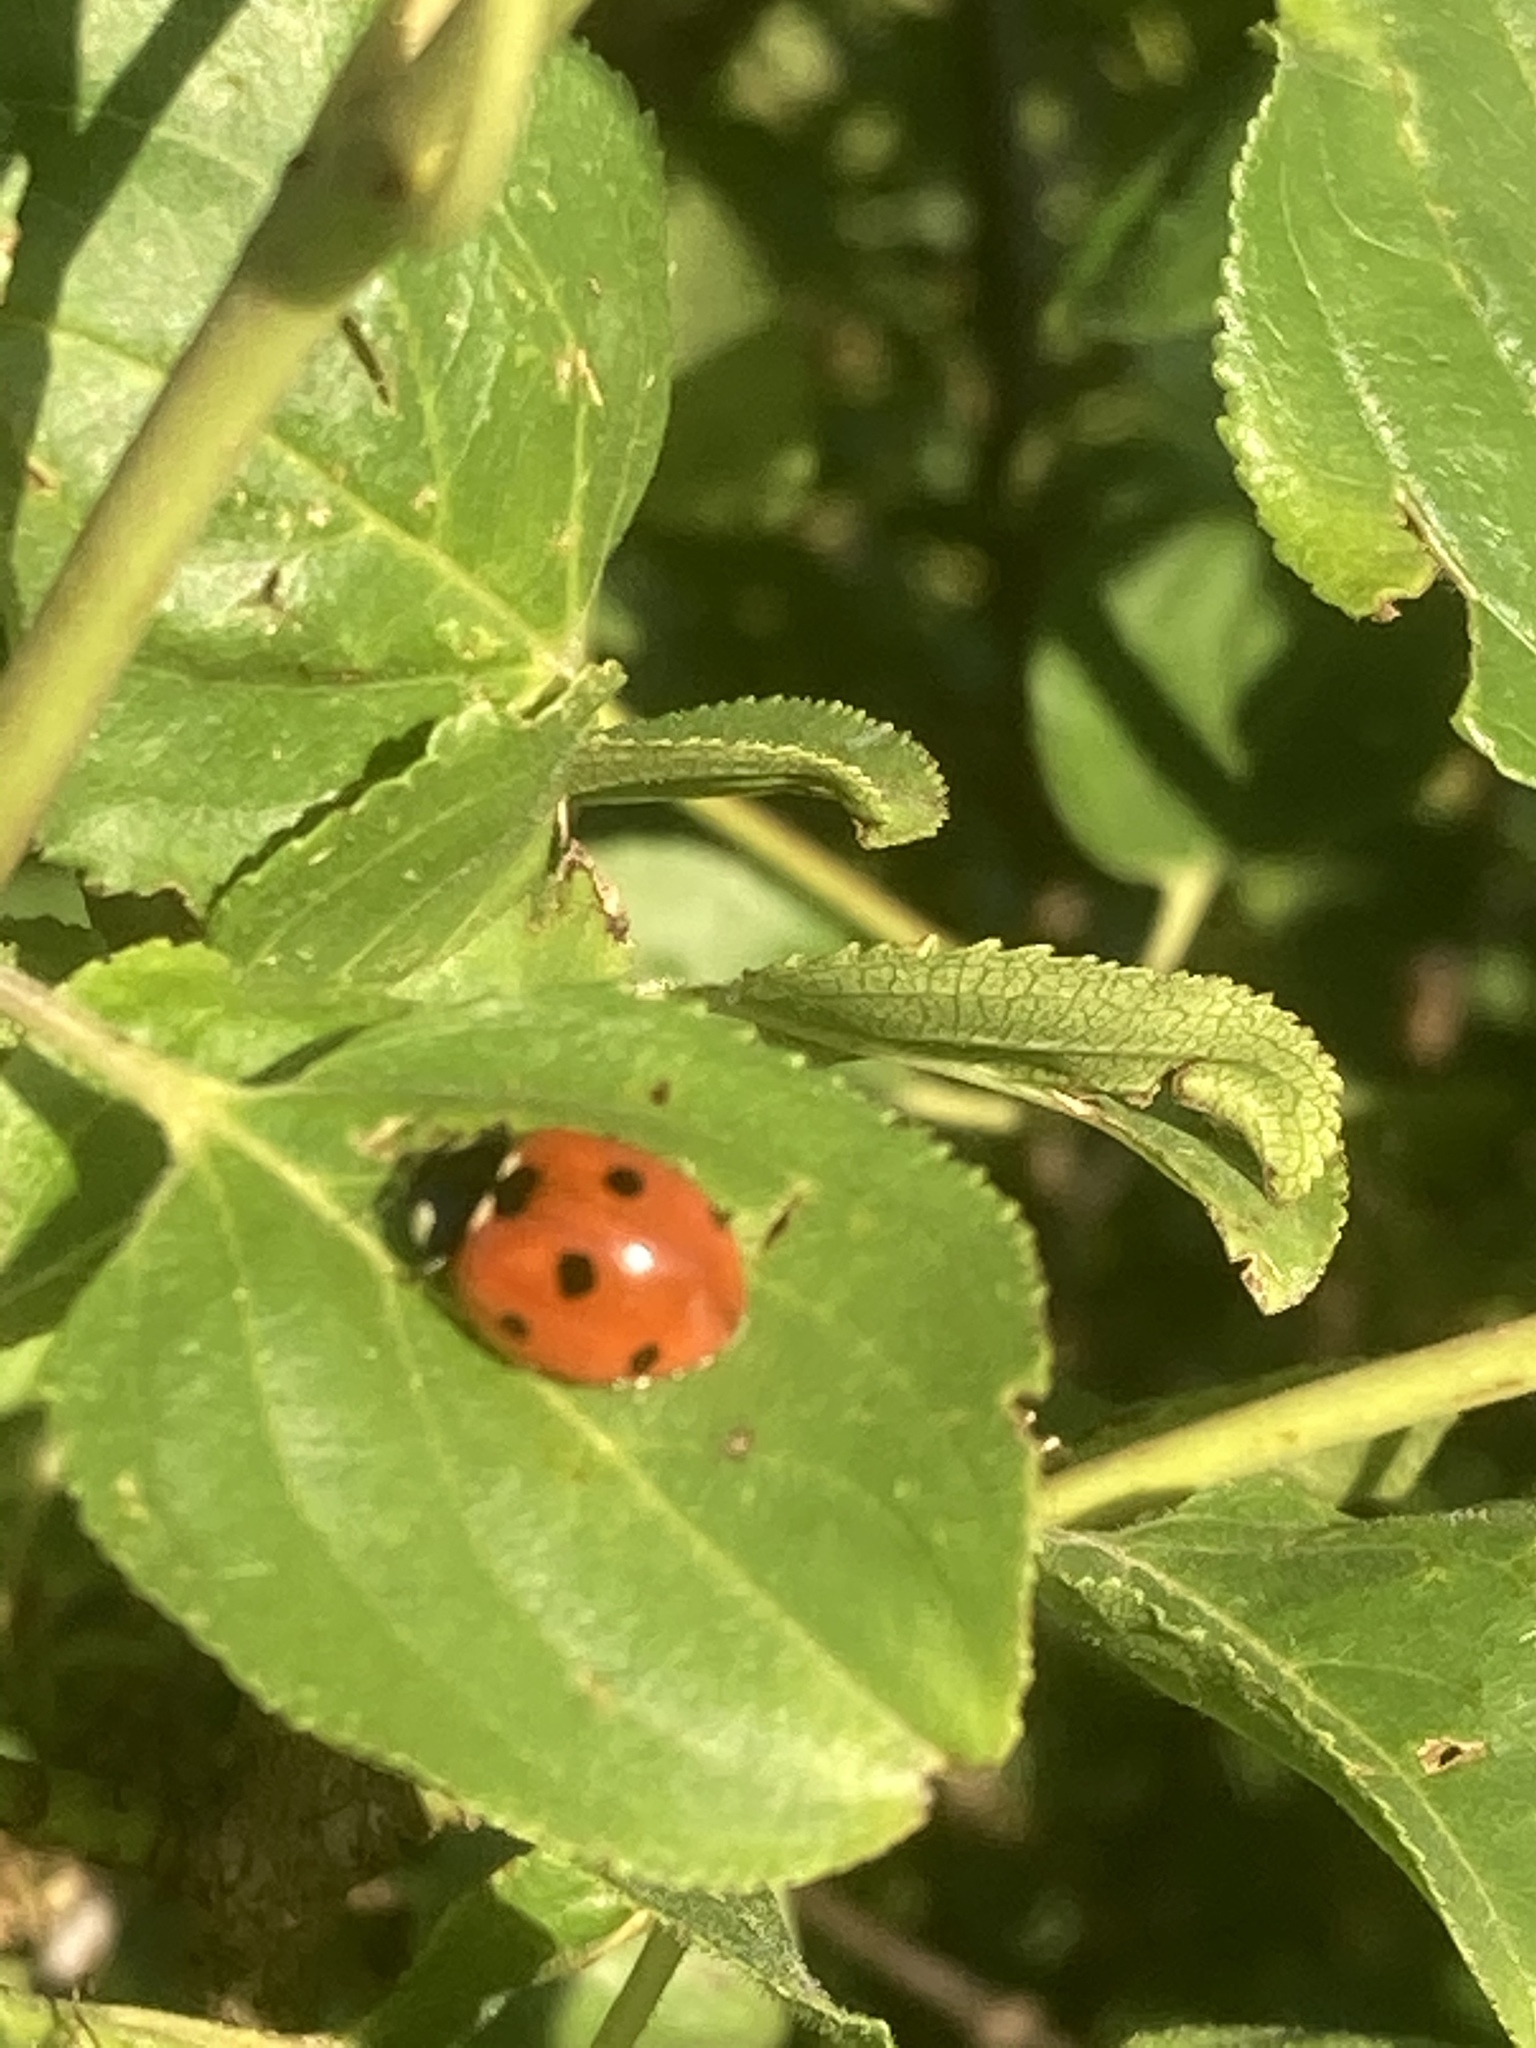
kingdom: Animalia
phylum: Arthropoda
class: Insecta
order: Coleoptera
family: Coccinellidae
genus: Coccinella
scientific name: Coccinella septempunctata
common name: Sevenspotted lady beetle
